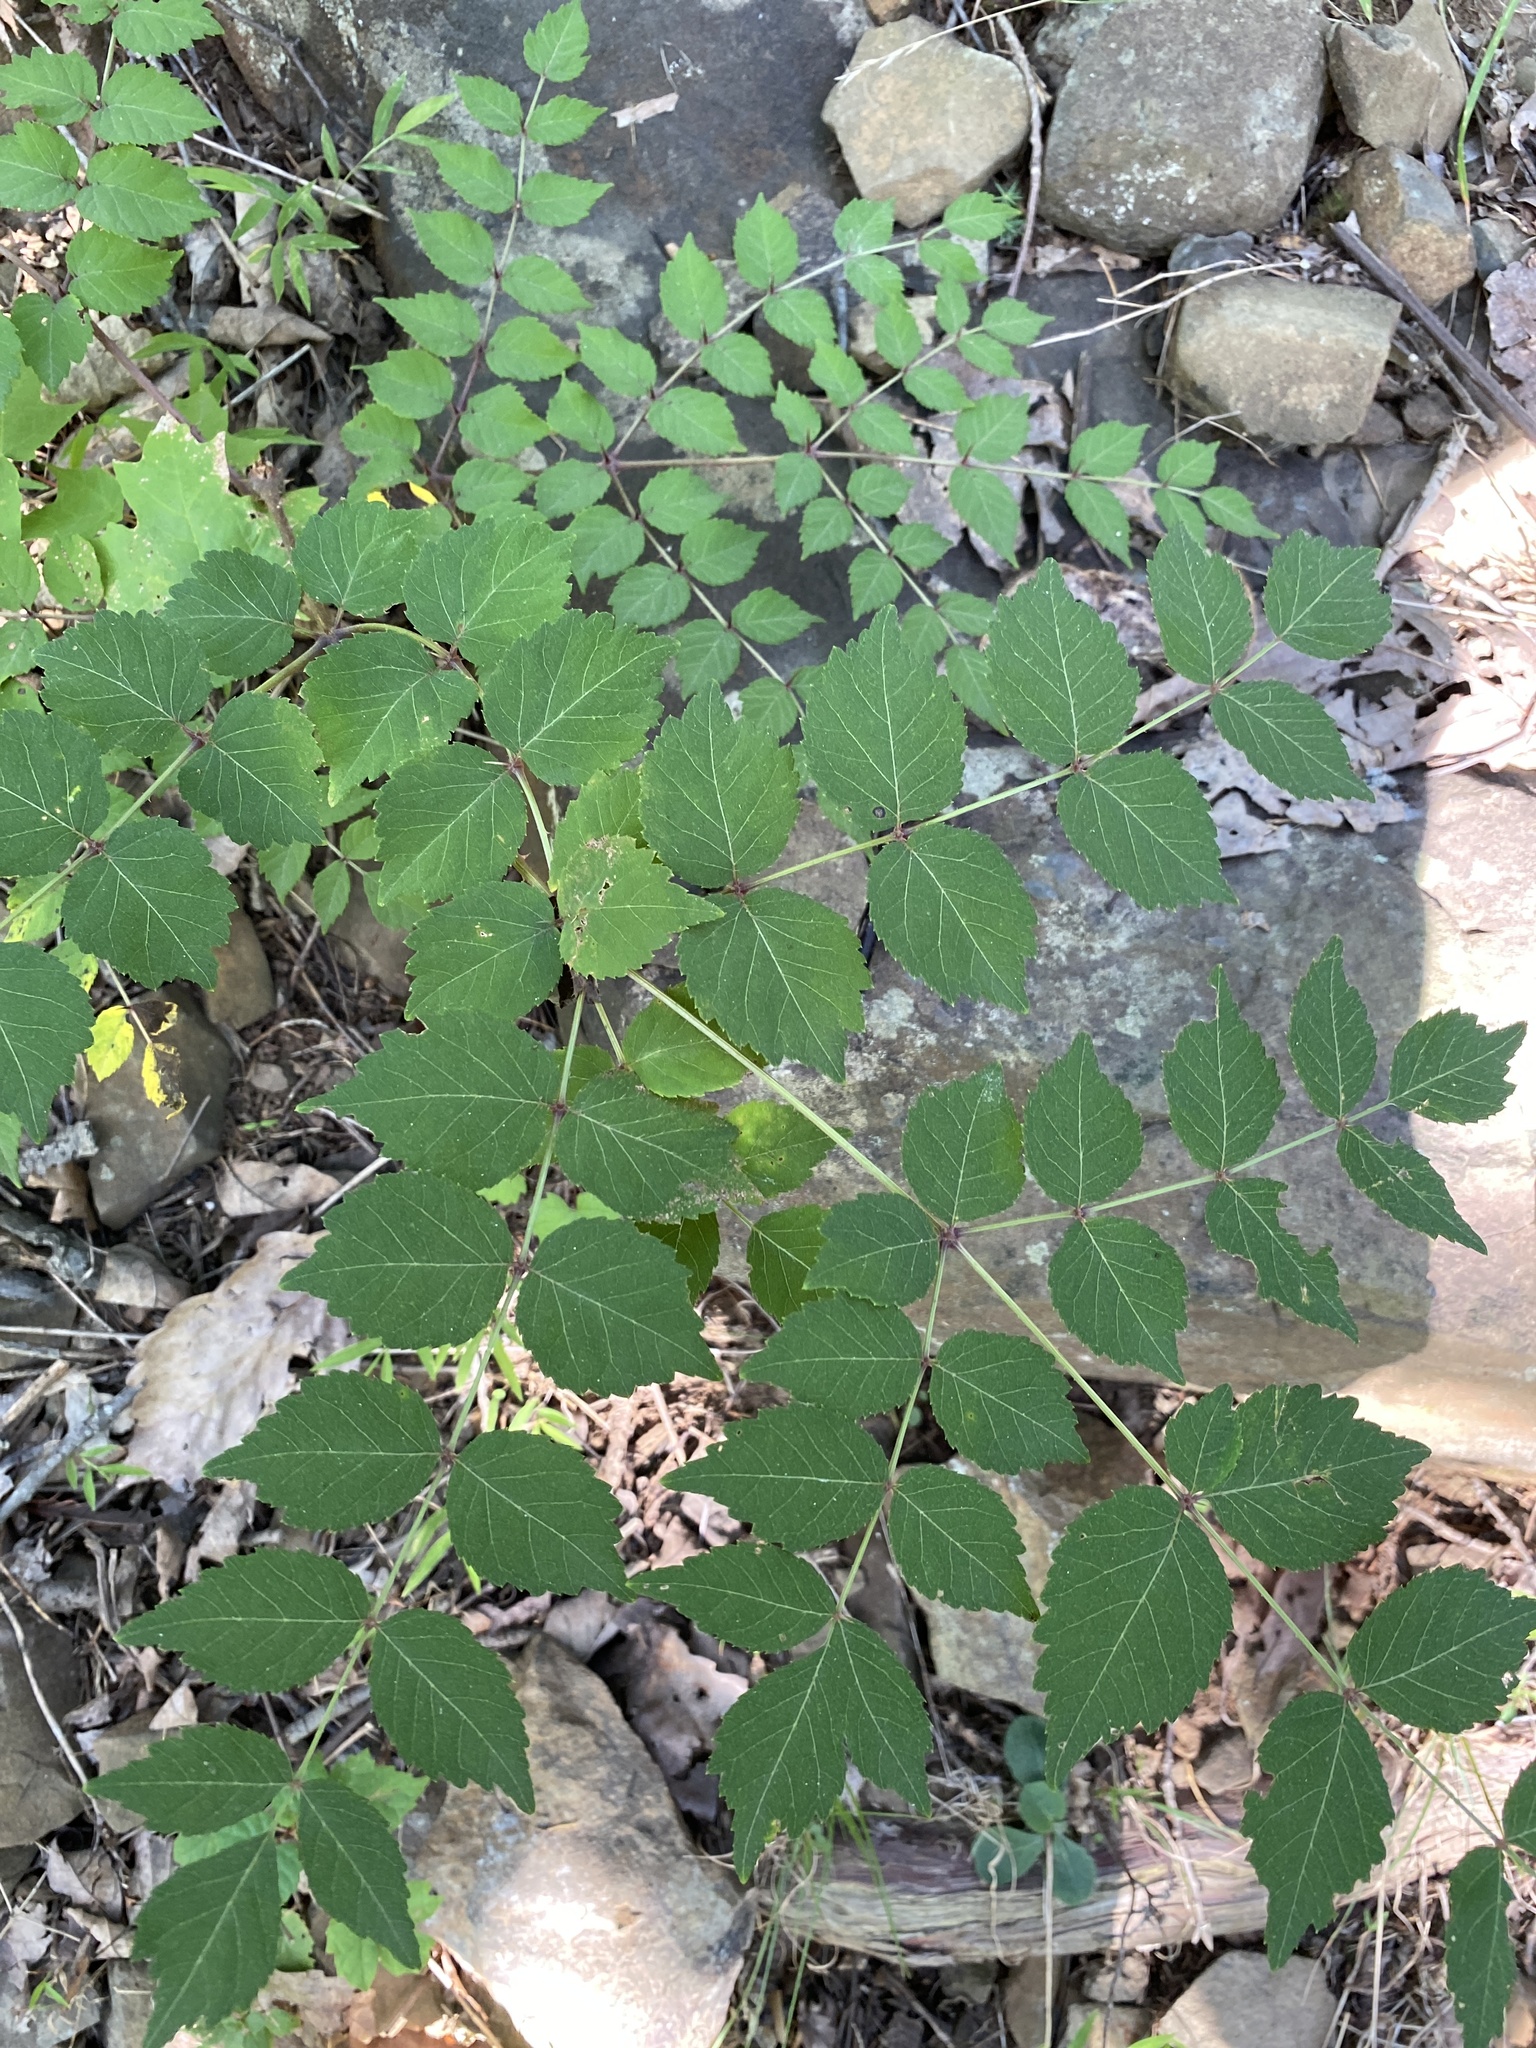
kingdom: Plantae
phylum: Tracheophyta
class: Magnoliopsida
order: Apiales
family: Araliaceae
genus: Aralia
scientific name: Aralia elata
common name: Japanese angelica-tree
